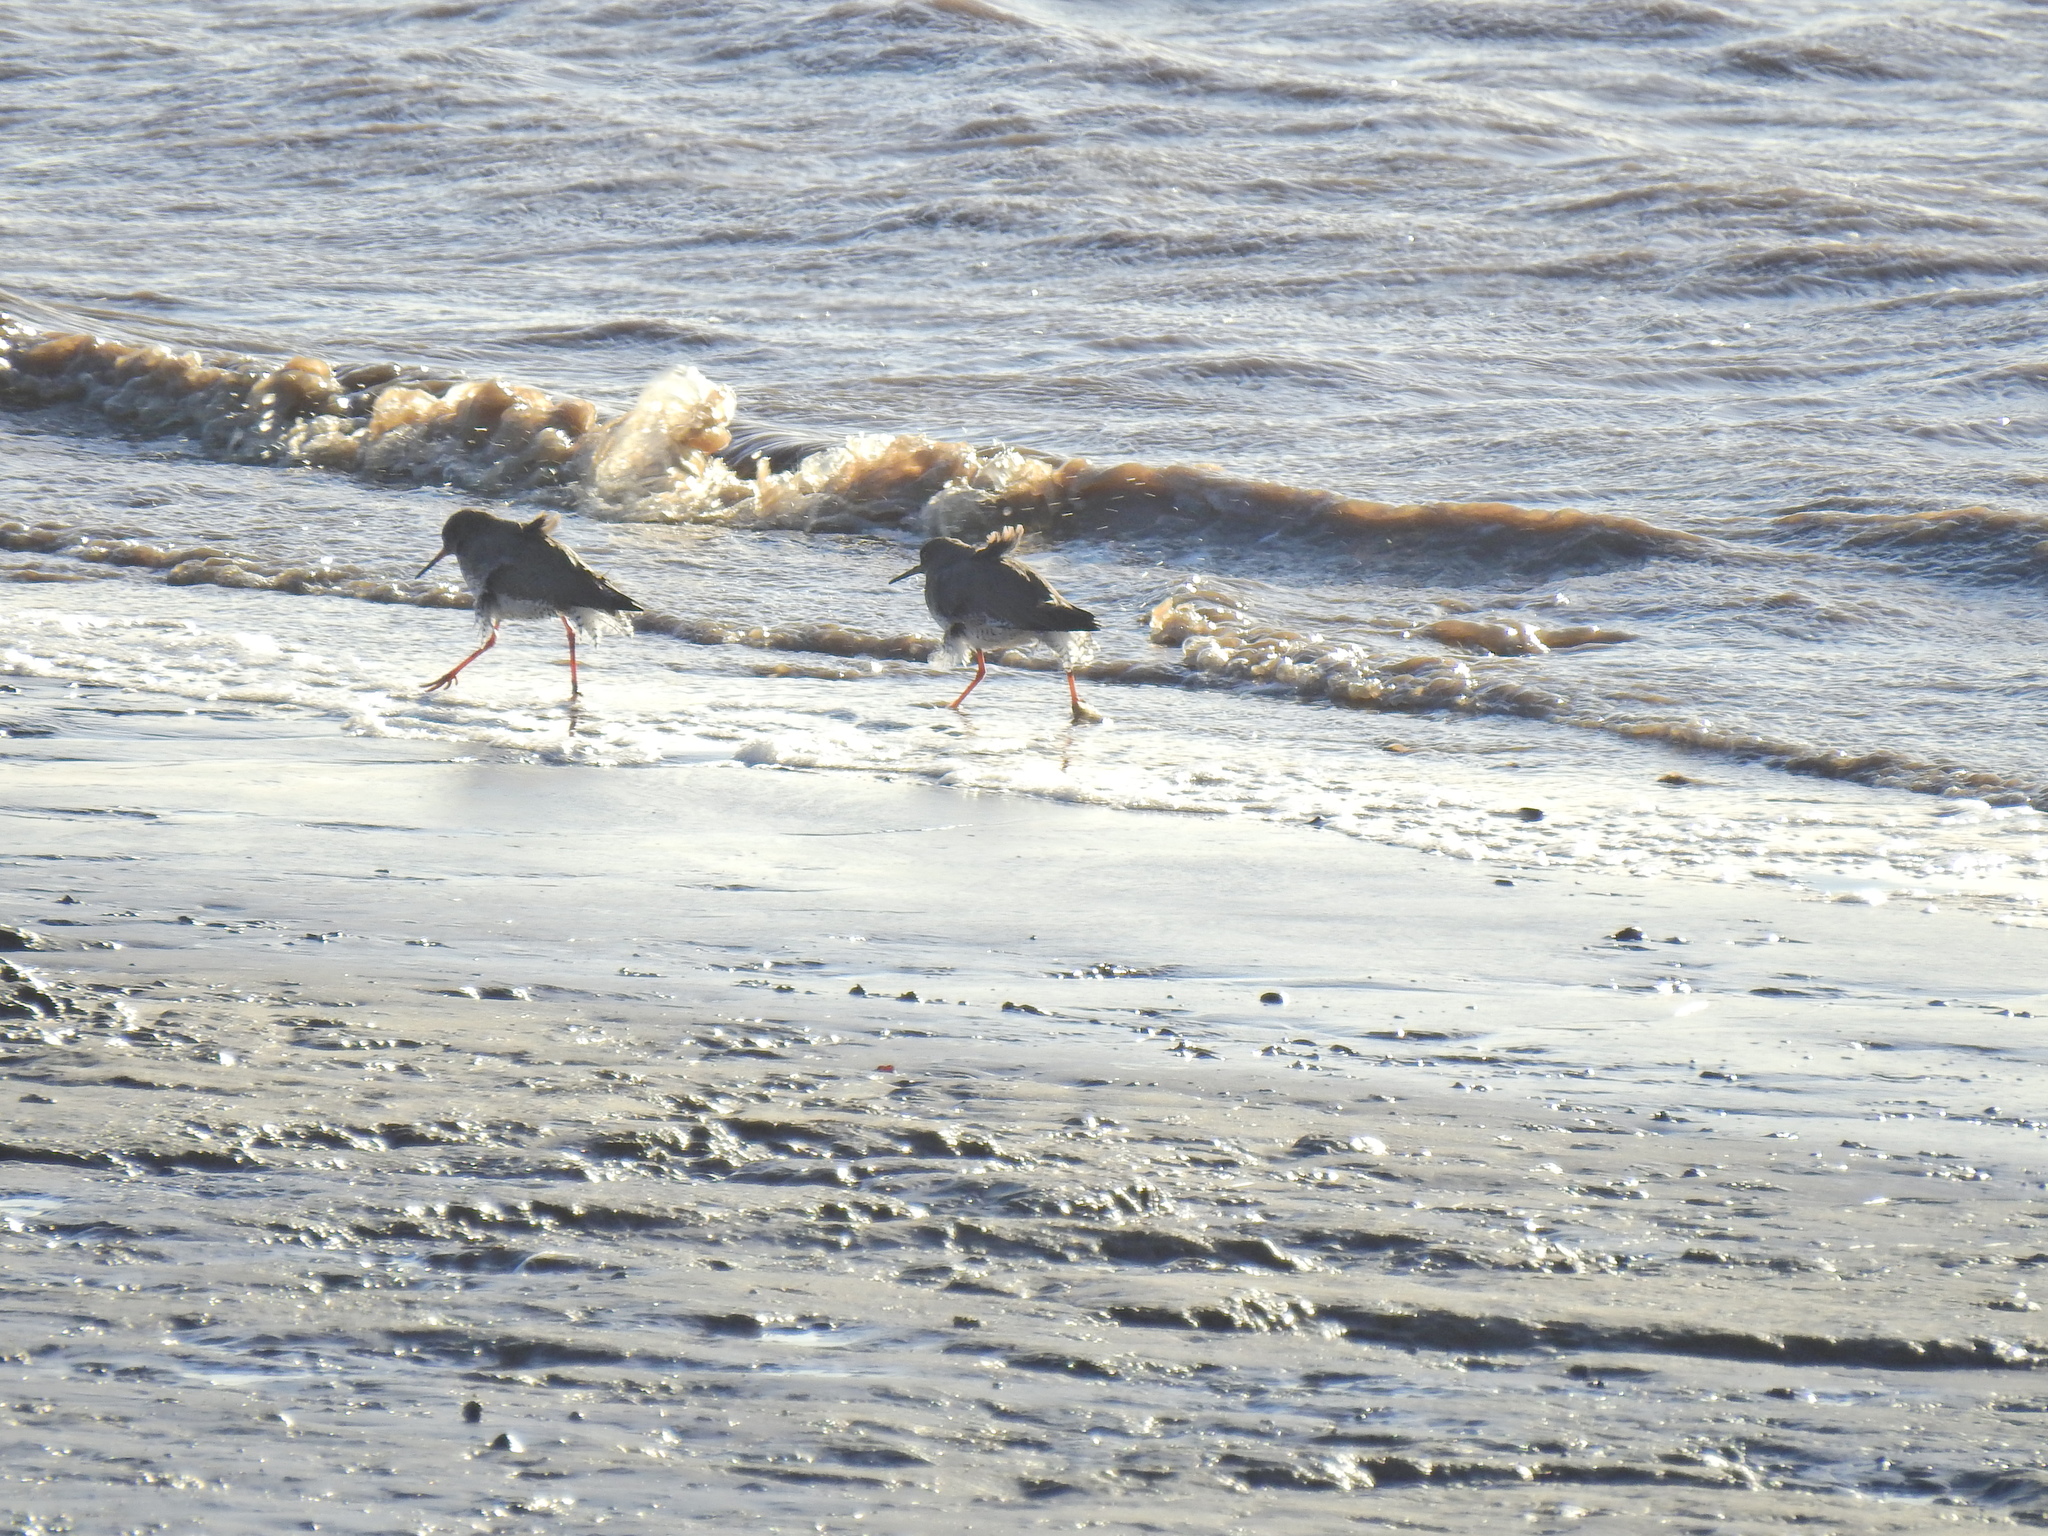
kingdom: Animalia
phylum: Chordata
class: Aves
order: Charadriiformes
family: Scolopacidae
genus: Tringa
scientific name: Tringa totanus
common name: Common redshank
